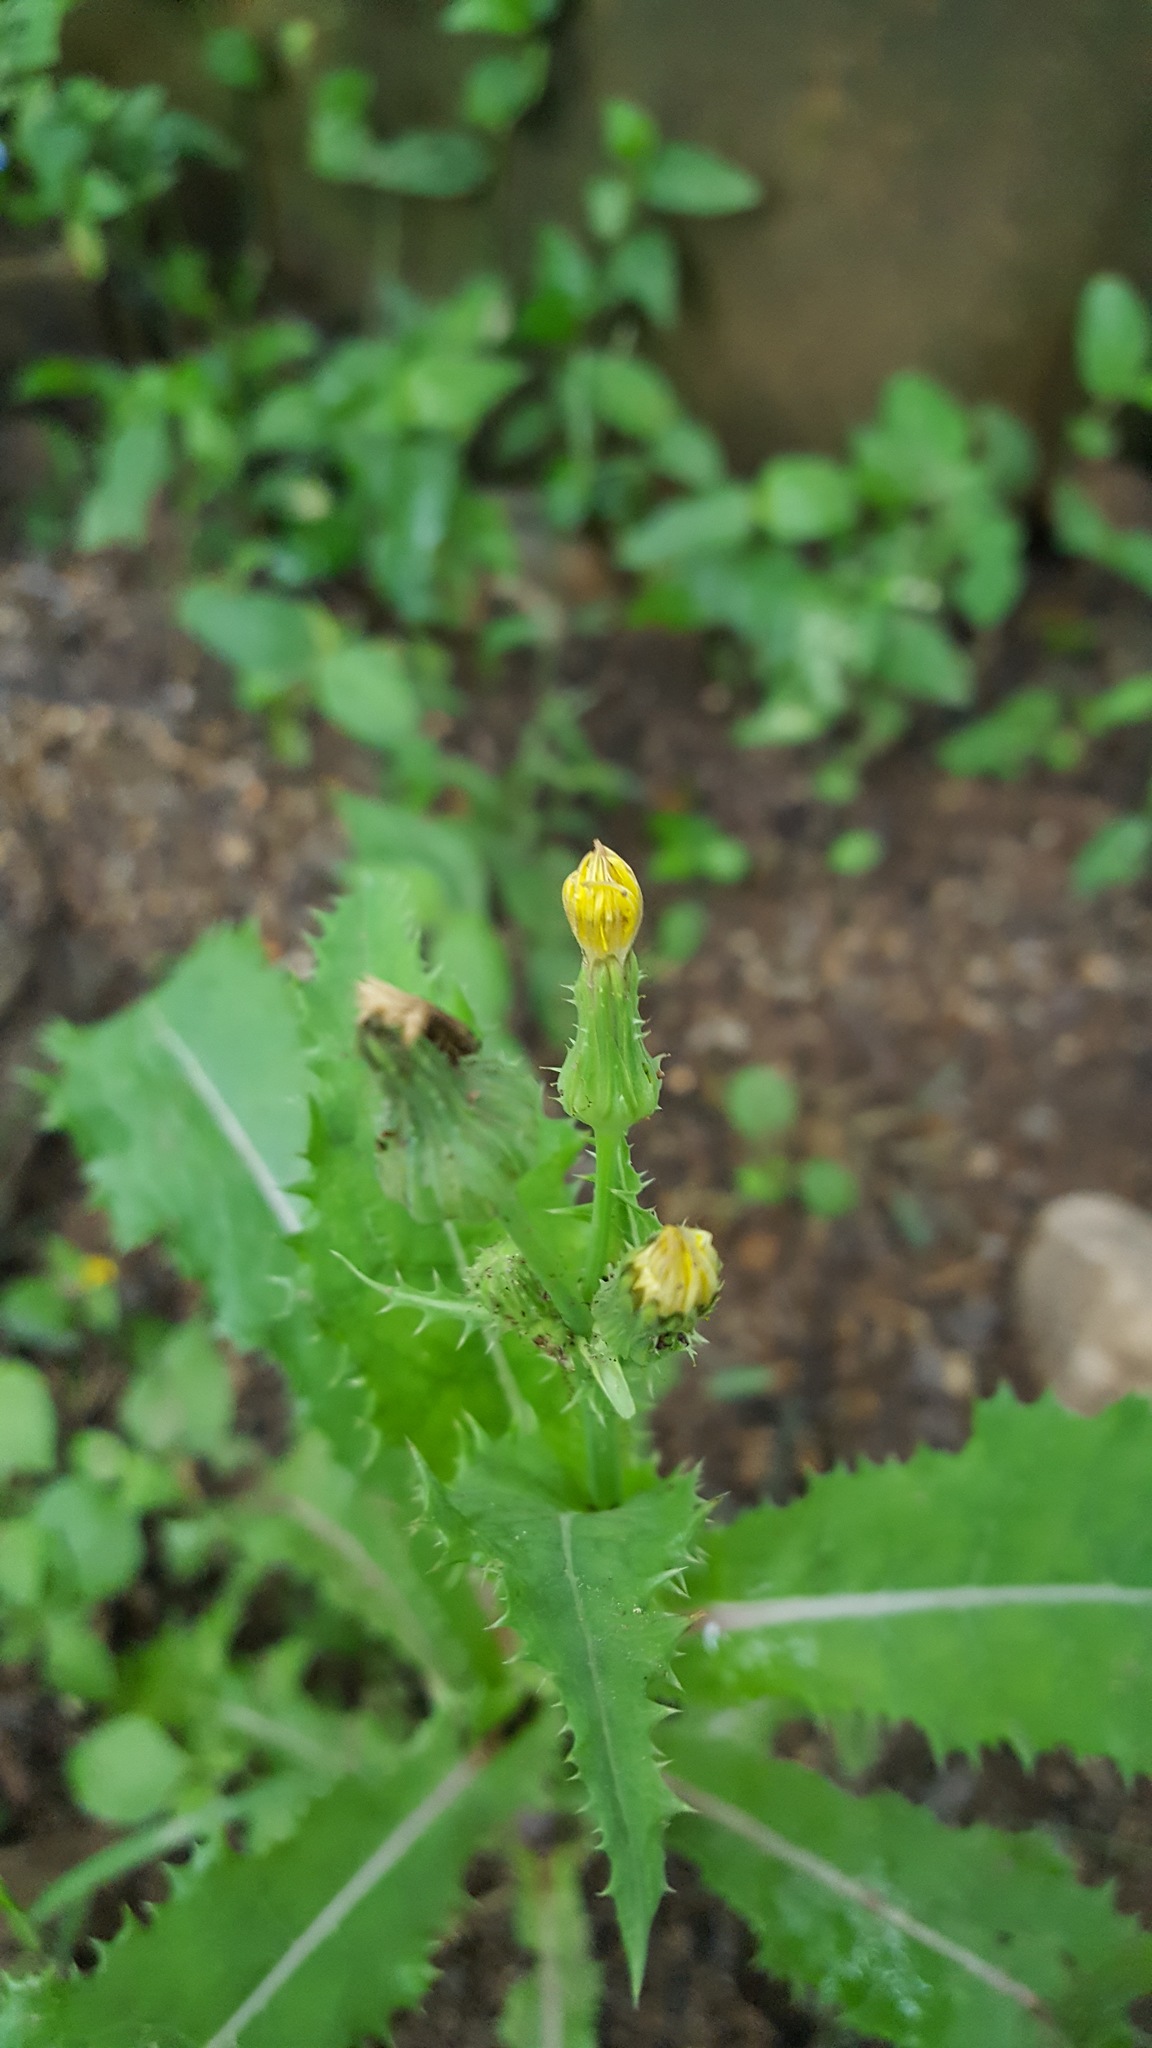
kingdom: Plantae
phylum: Tracheophyta
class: Magnoliopsida
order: Asterales
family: Asteraceae
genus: Sonchus
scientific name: Sonchus asper
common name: Prickly sow-thistle
